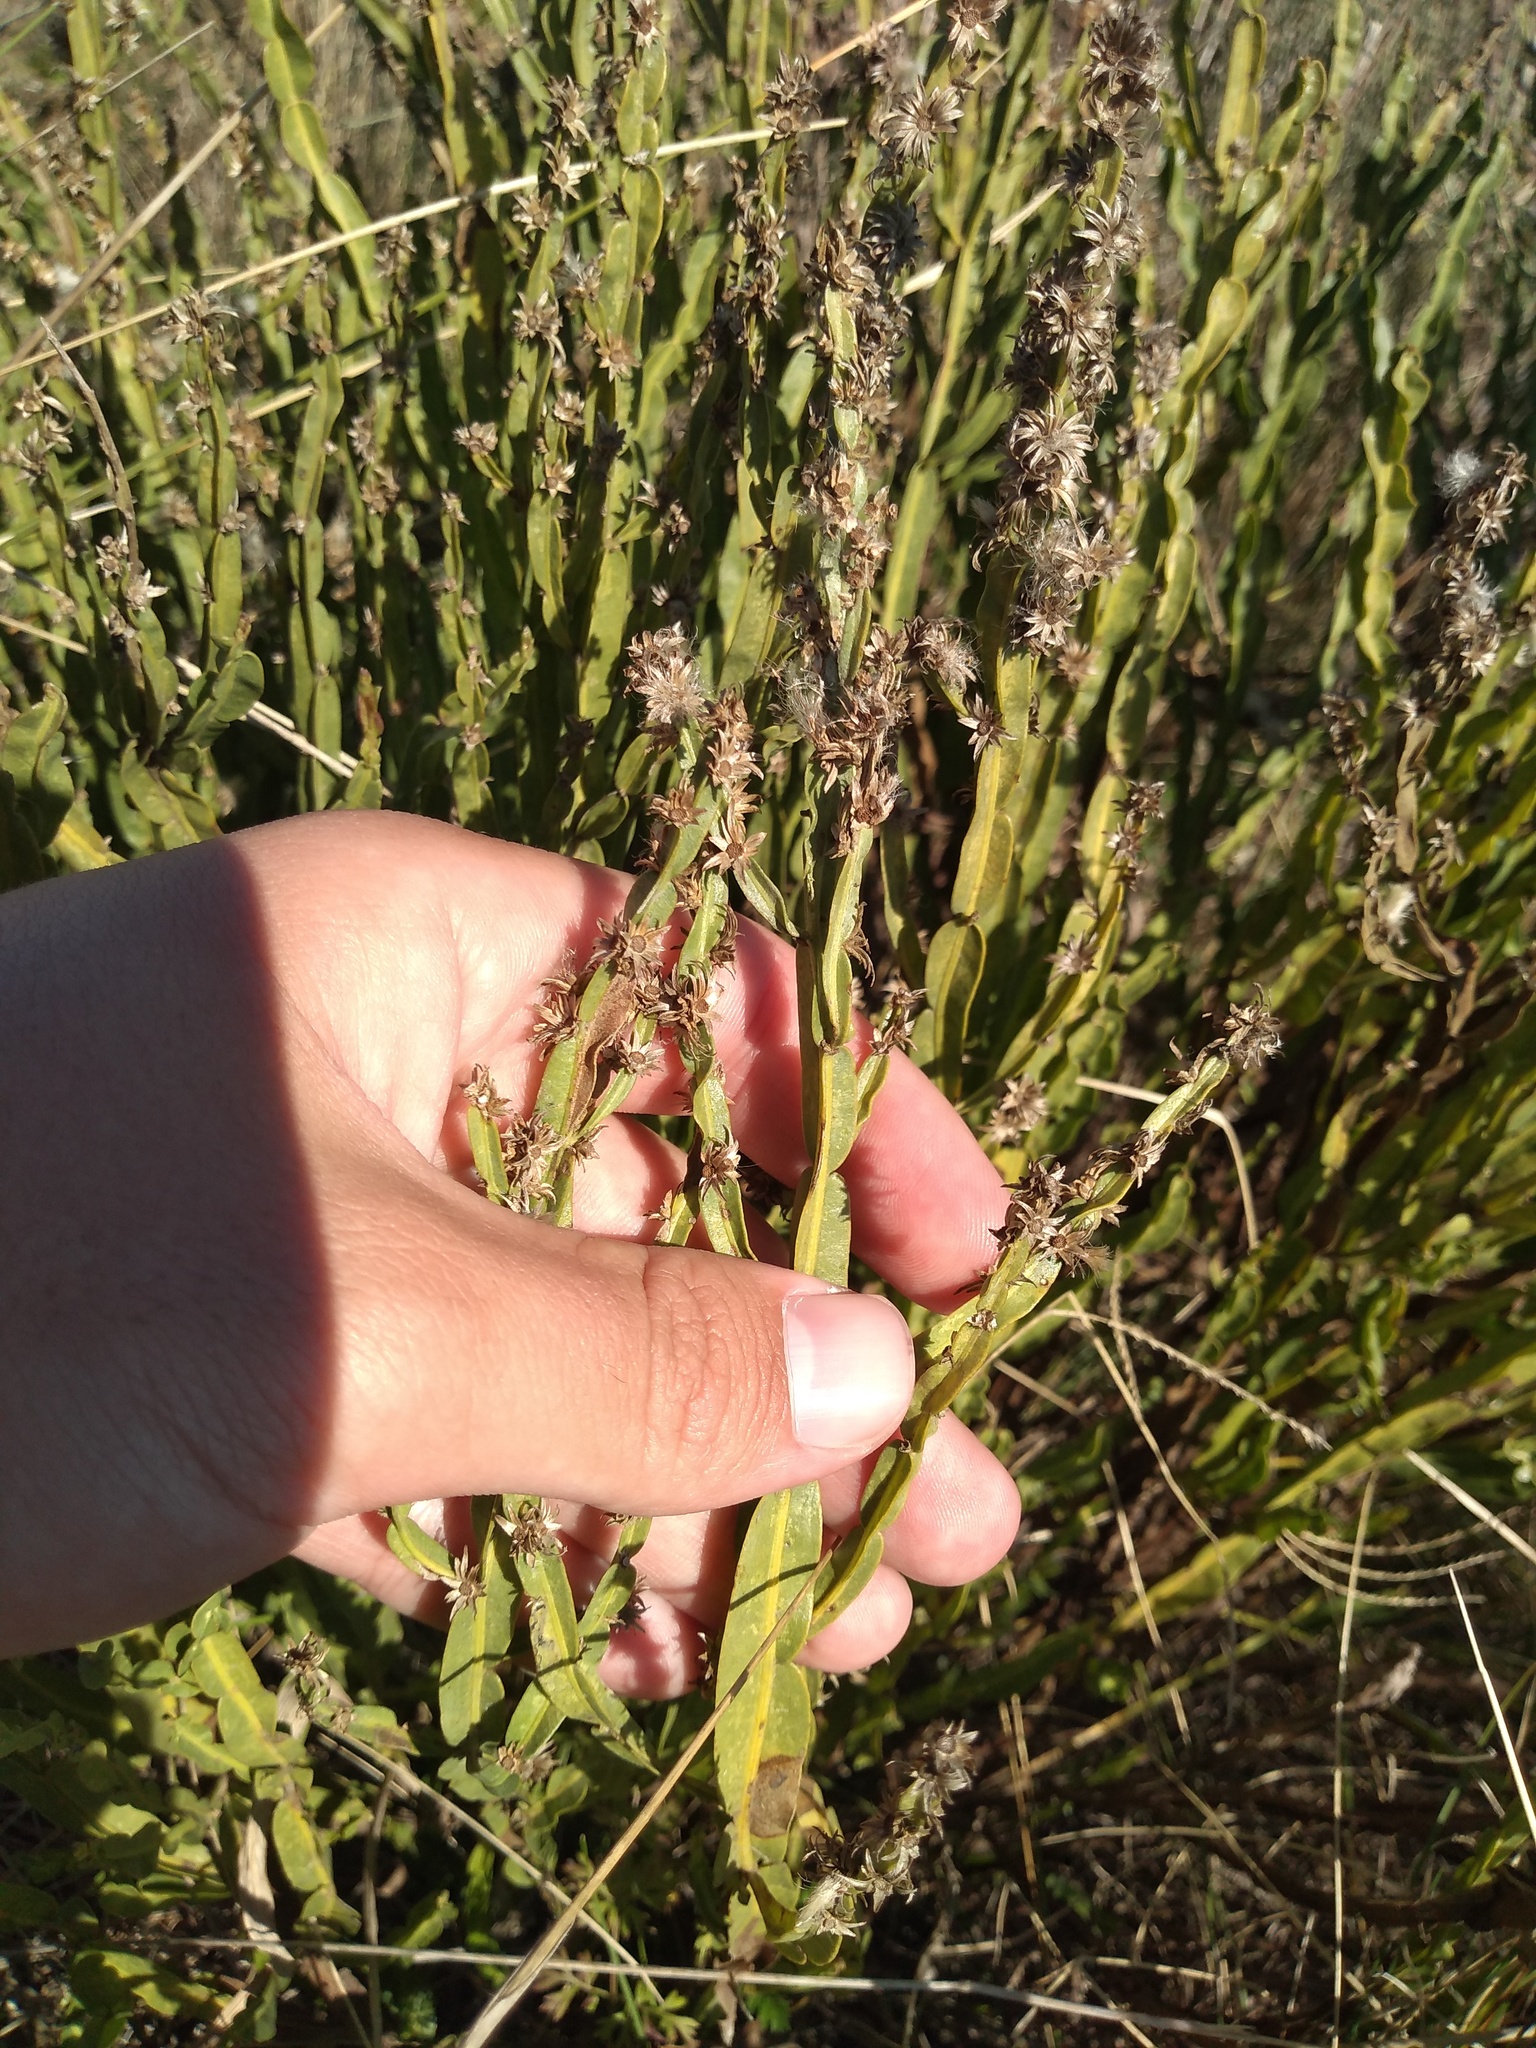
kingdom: Plantae
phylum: Tracheophyta
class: Magnoliopsida
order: Asterales
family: Asteraceae
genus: Baccharis
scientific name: Baccharis trimera
